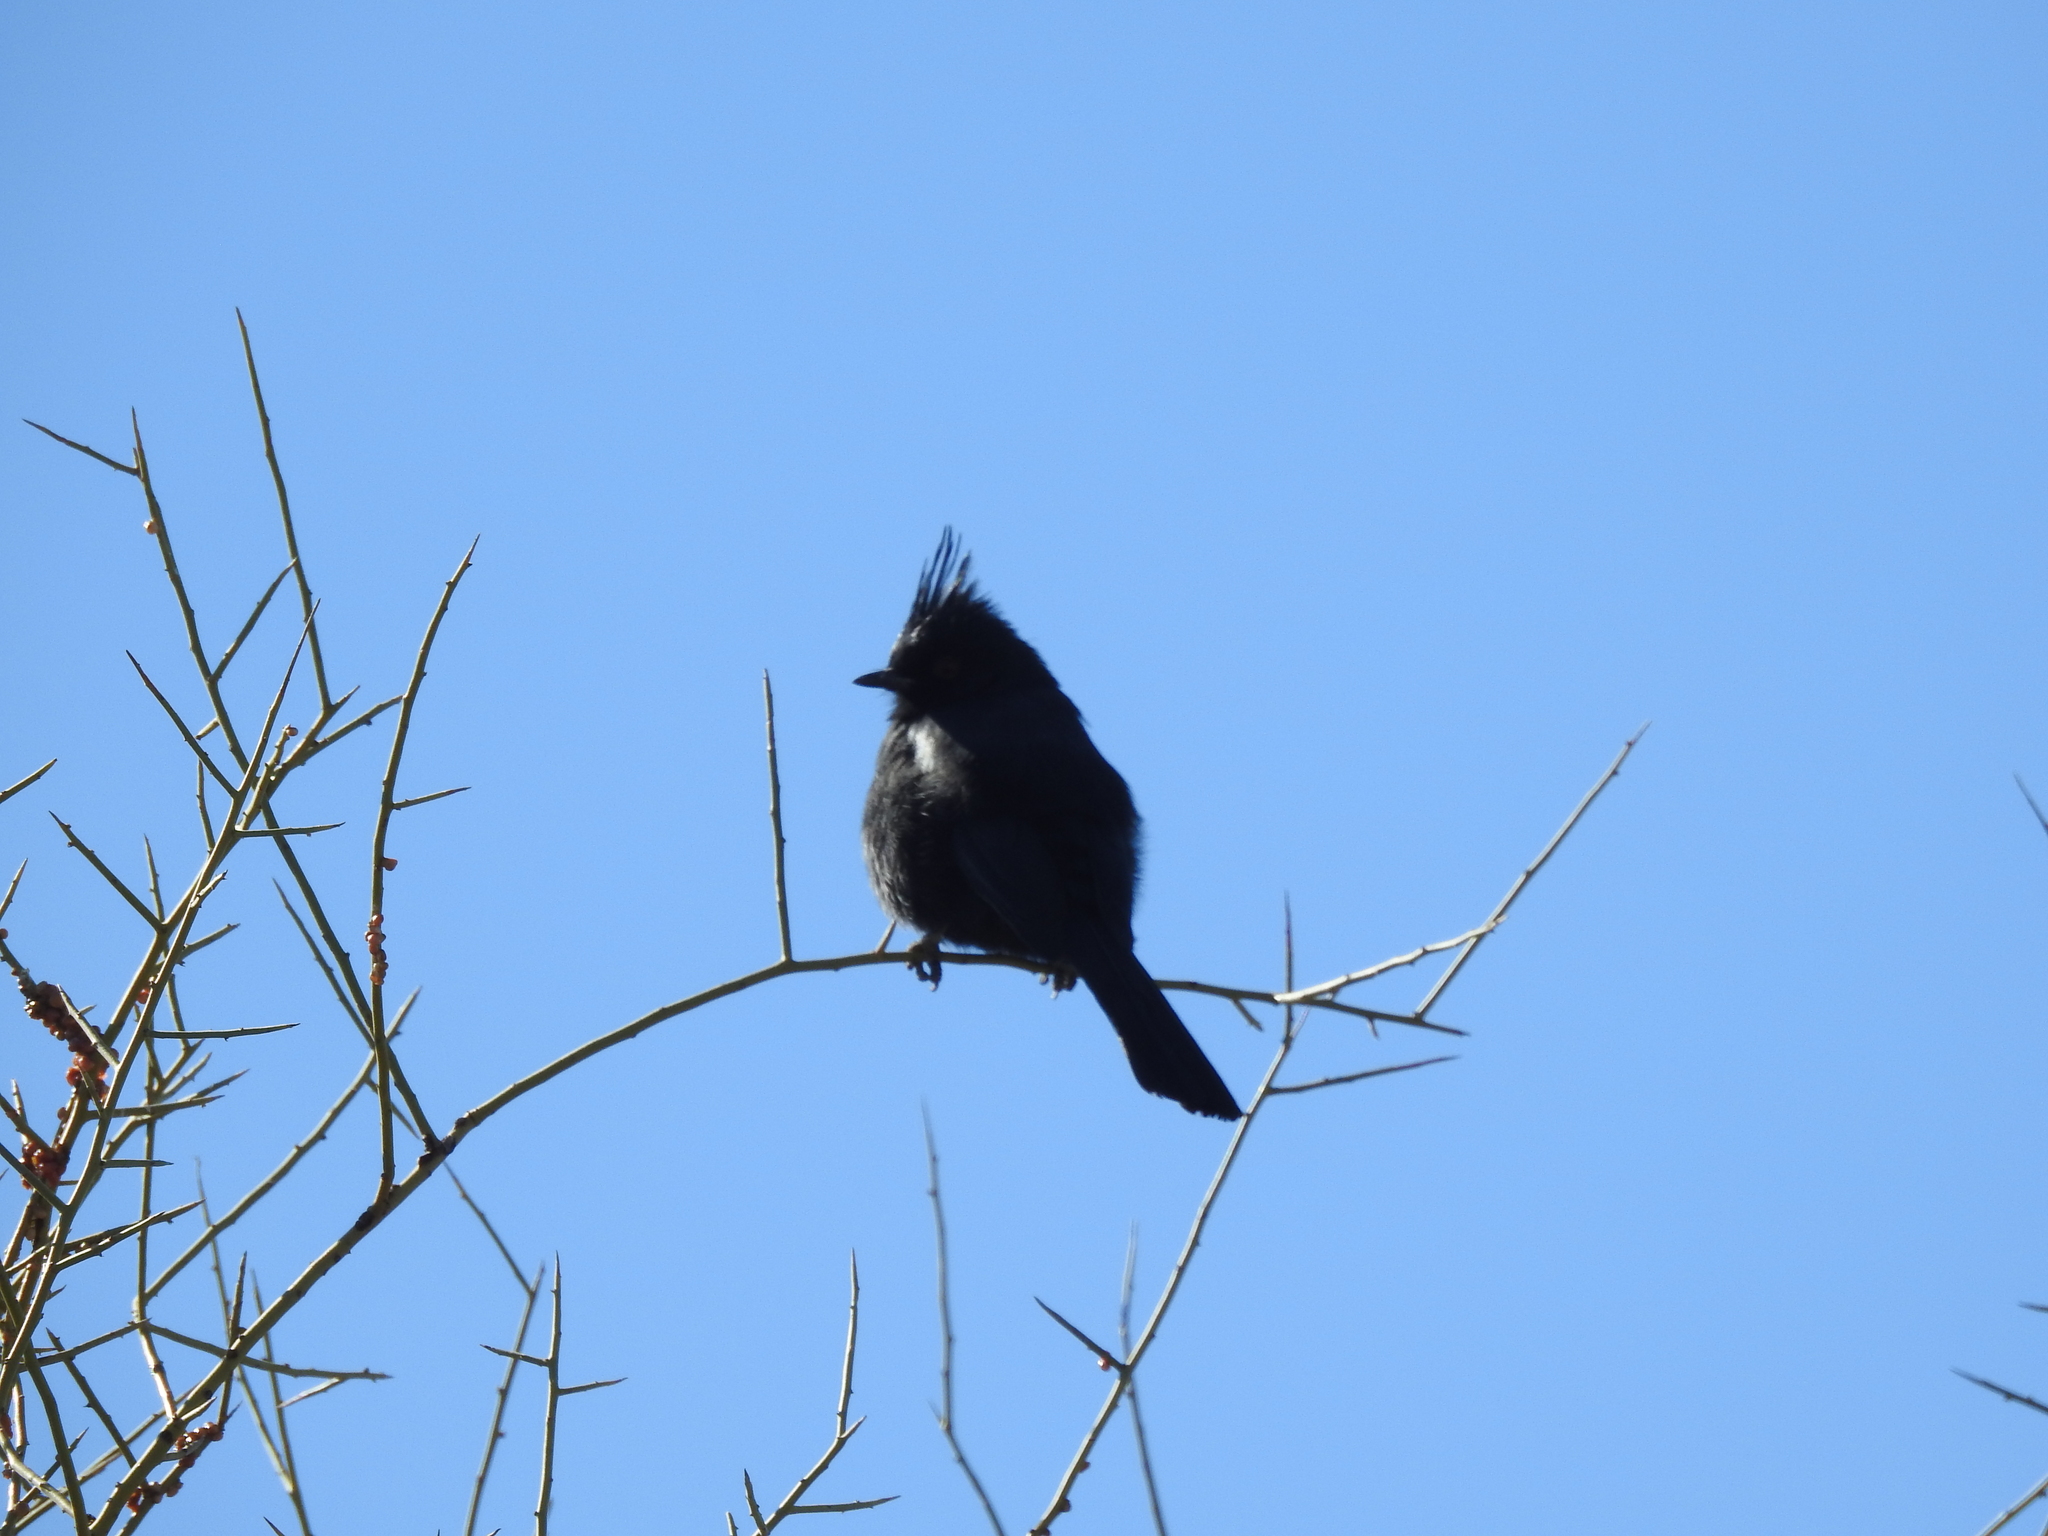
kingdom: Animalia
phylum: Chordata
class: Aves
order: Passeriformes
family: Ptilogonatidae
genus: Phainopepla
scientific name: Phainopepla nitens
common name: Phainopepla
